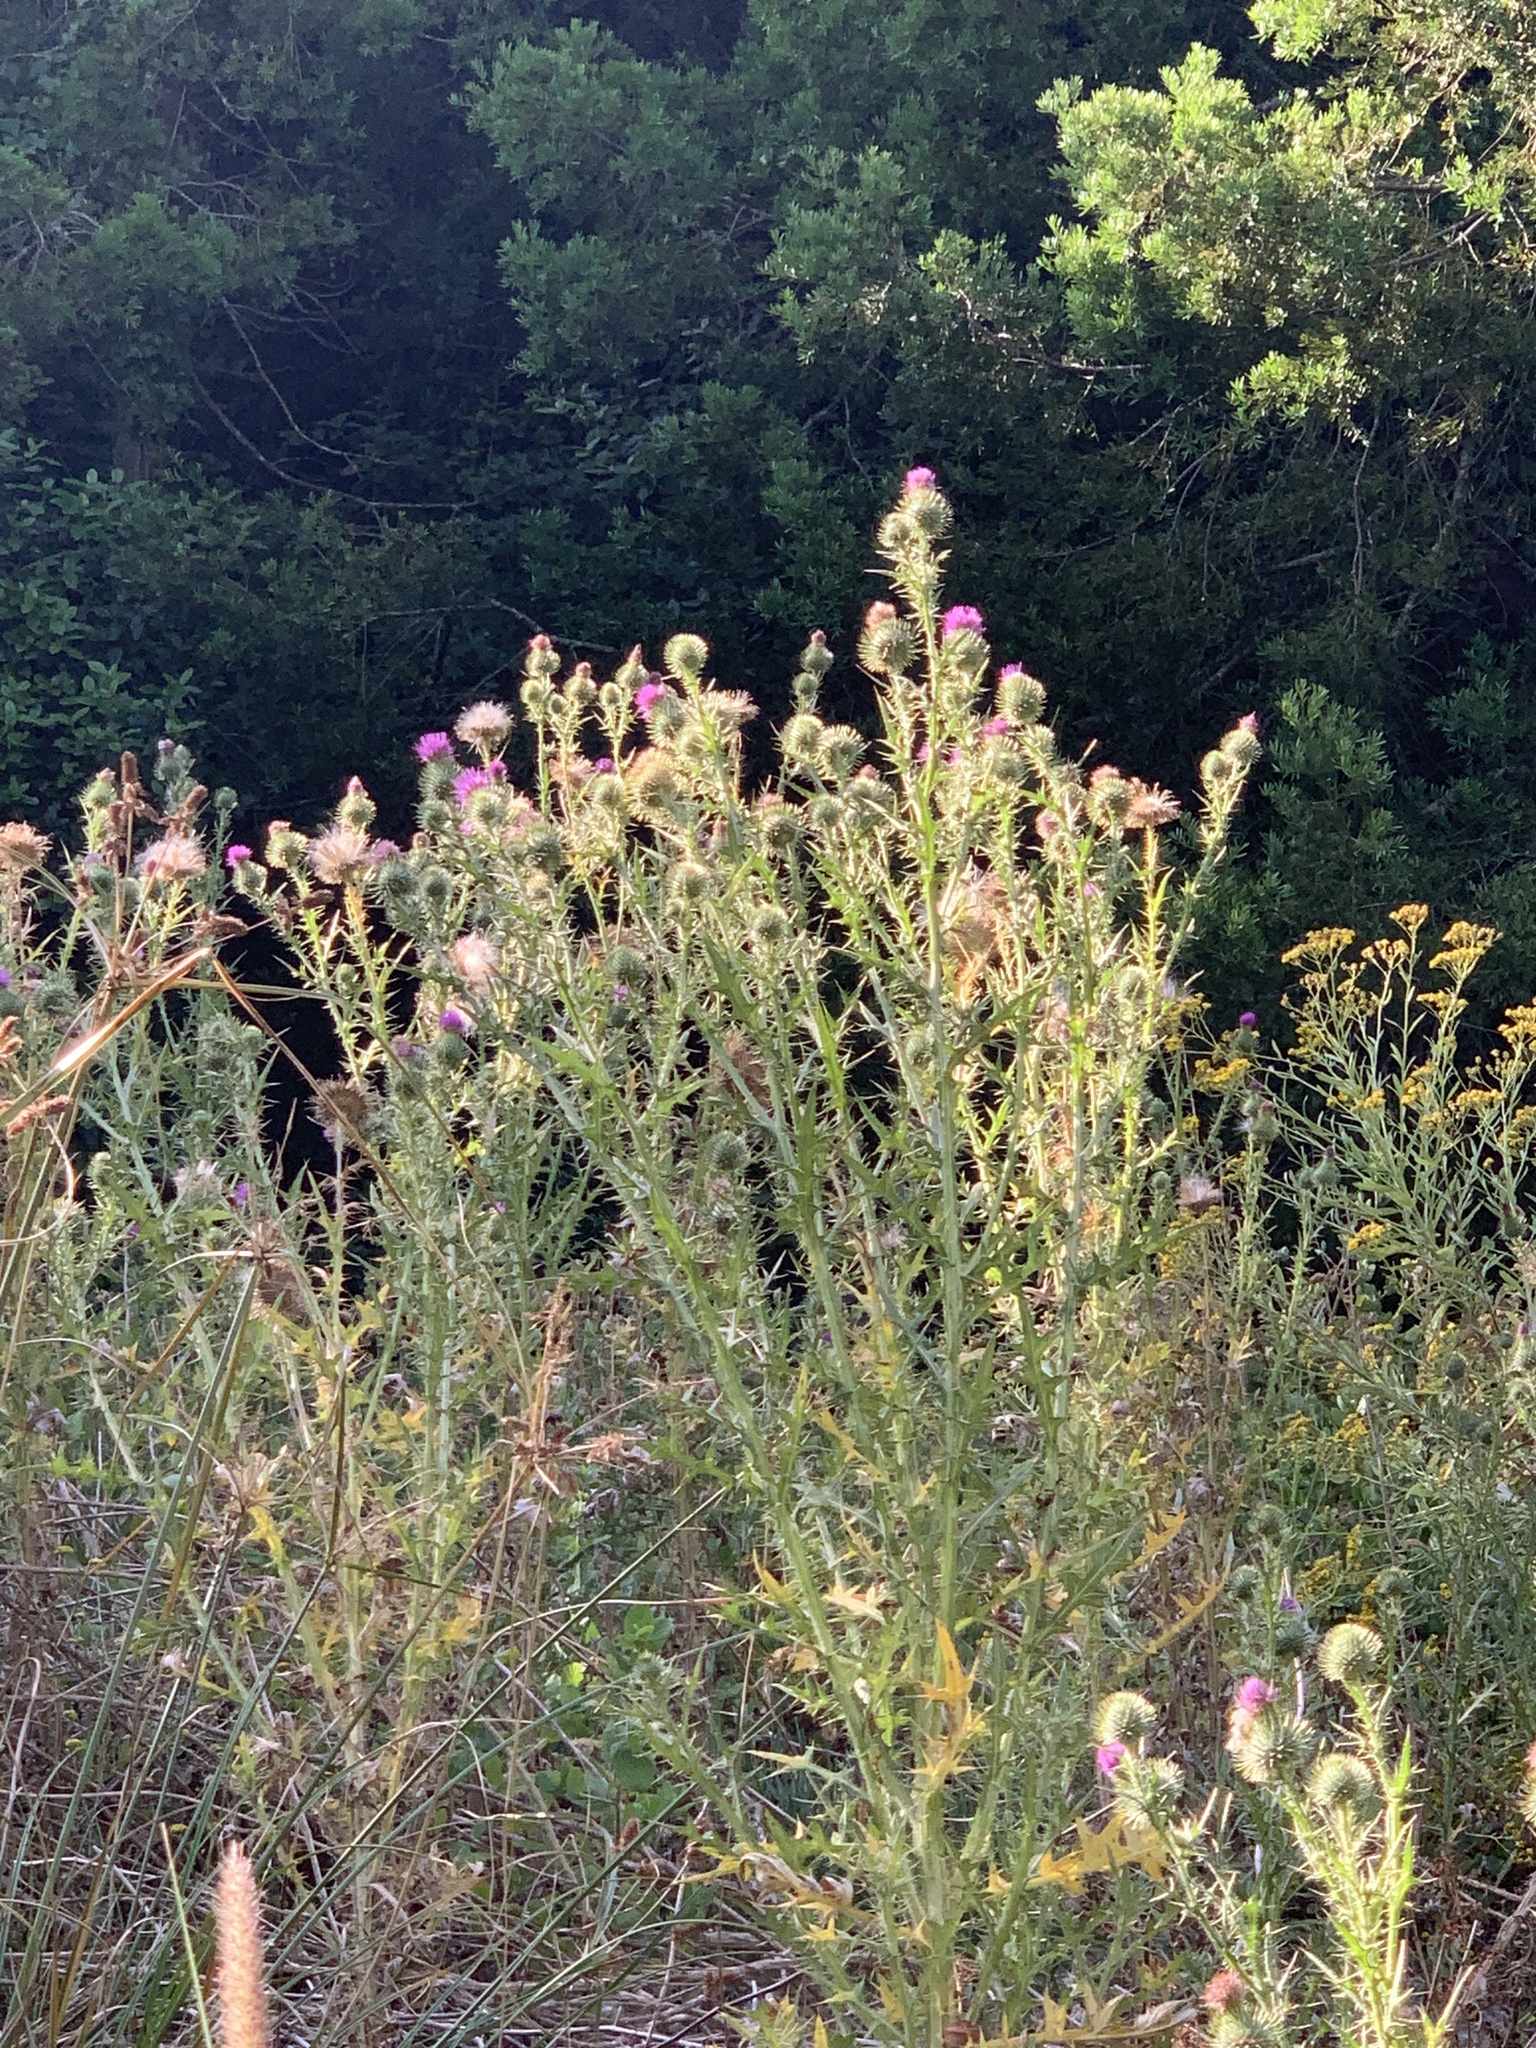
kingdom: Plantae
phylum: Tracheophyta
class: Magnoliopsida
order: Asterales
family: Asteraceae
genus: Cirsium
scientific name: Cirsium vulgare
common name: Bull thistle
